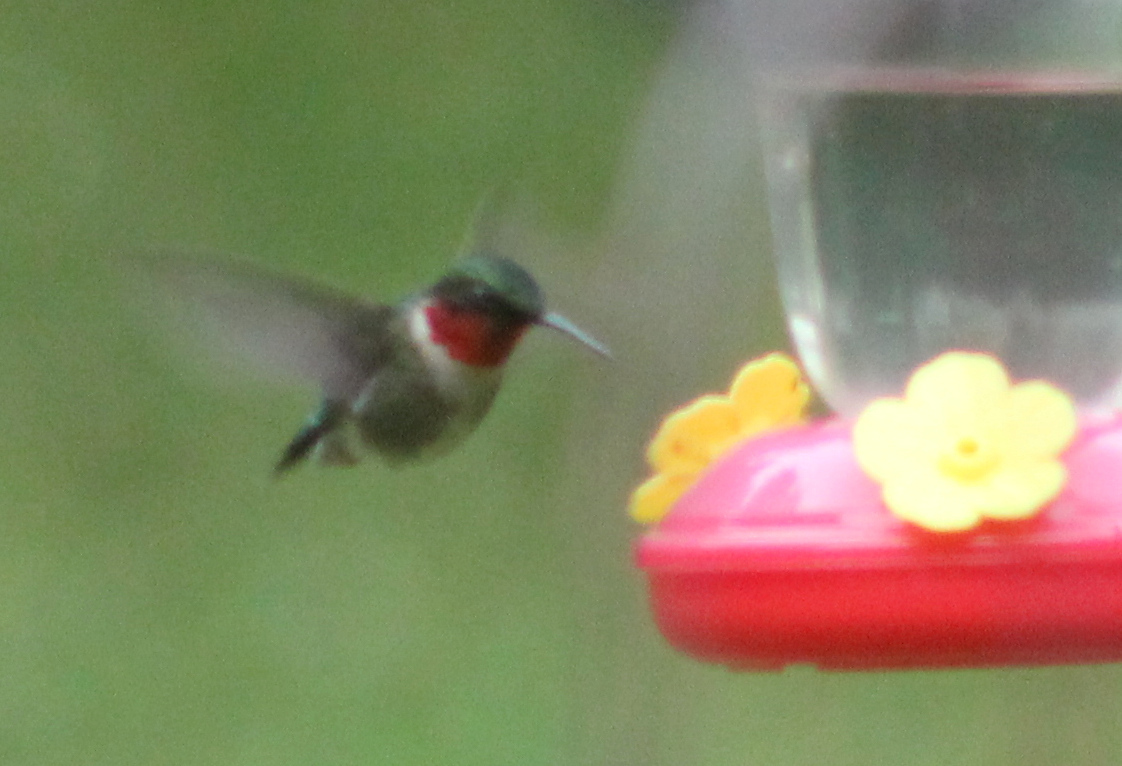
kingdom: Animalia
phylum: Chordata
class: Aves
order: Apodiformes
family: Trochilidae
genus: Archilochus
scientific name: Archilochus colubris
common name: Ruby-throated hummingbird
